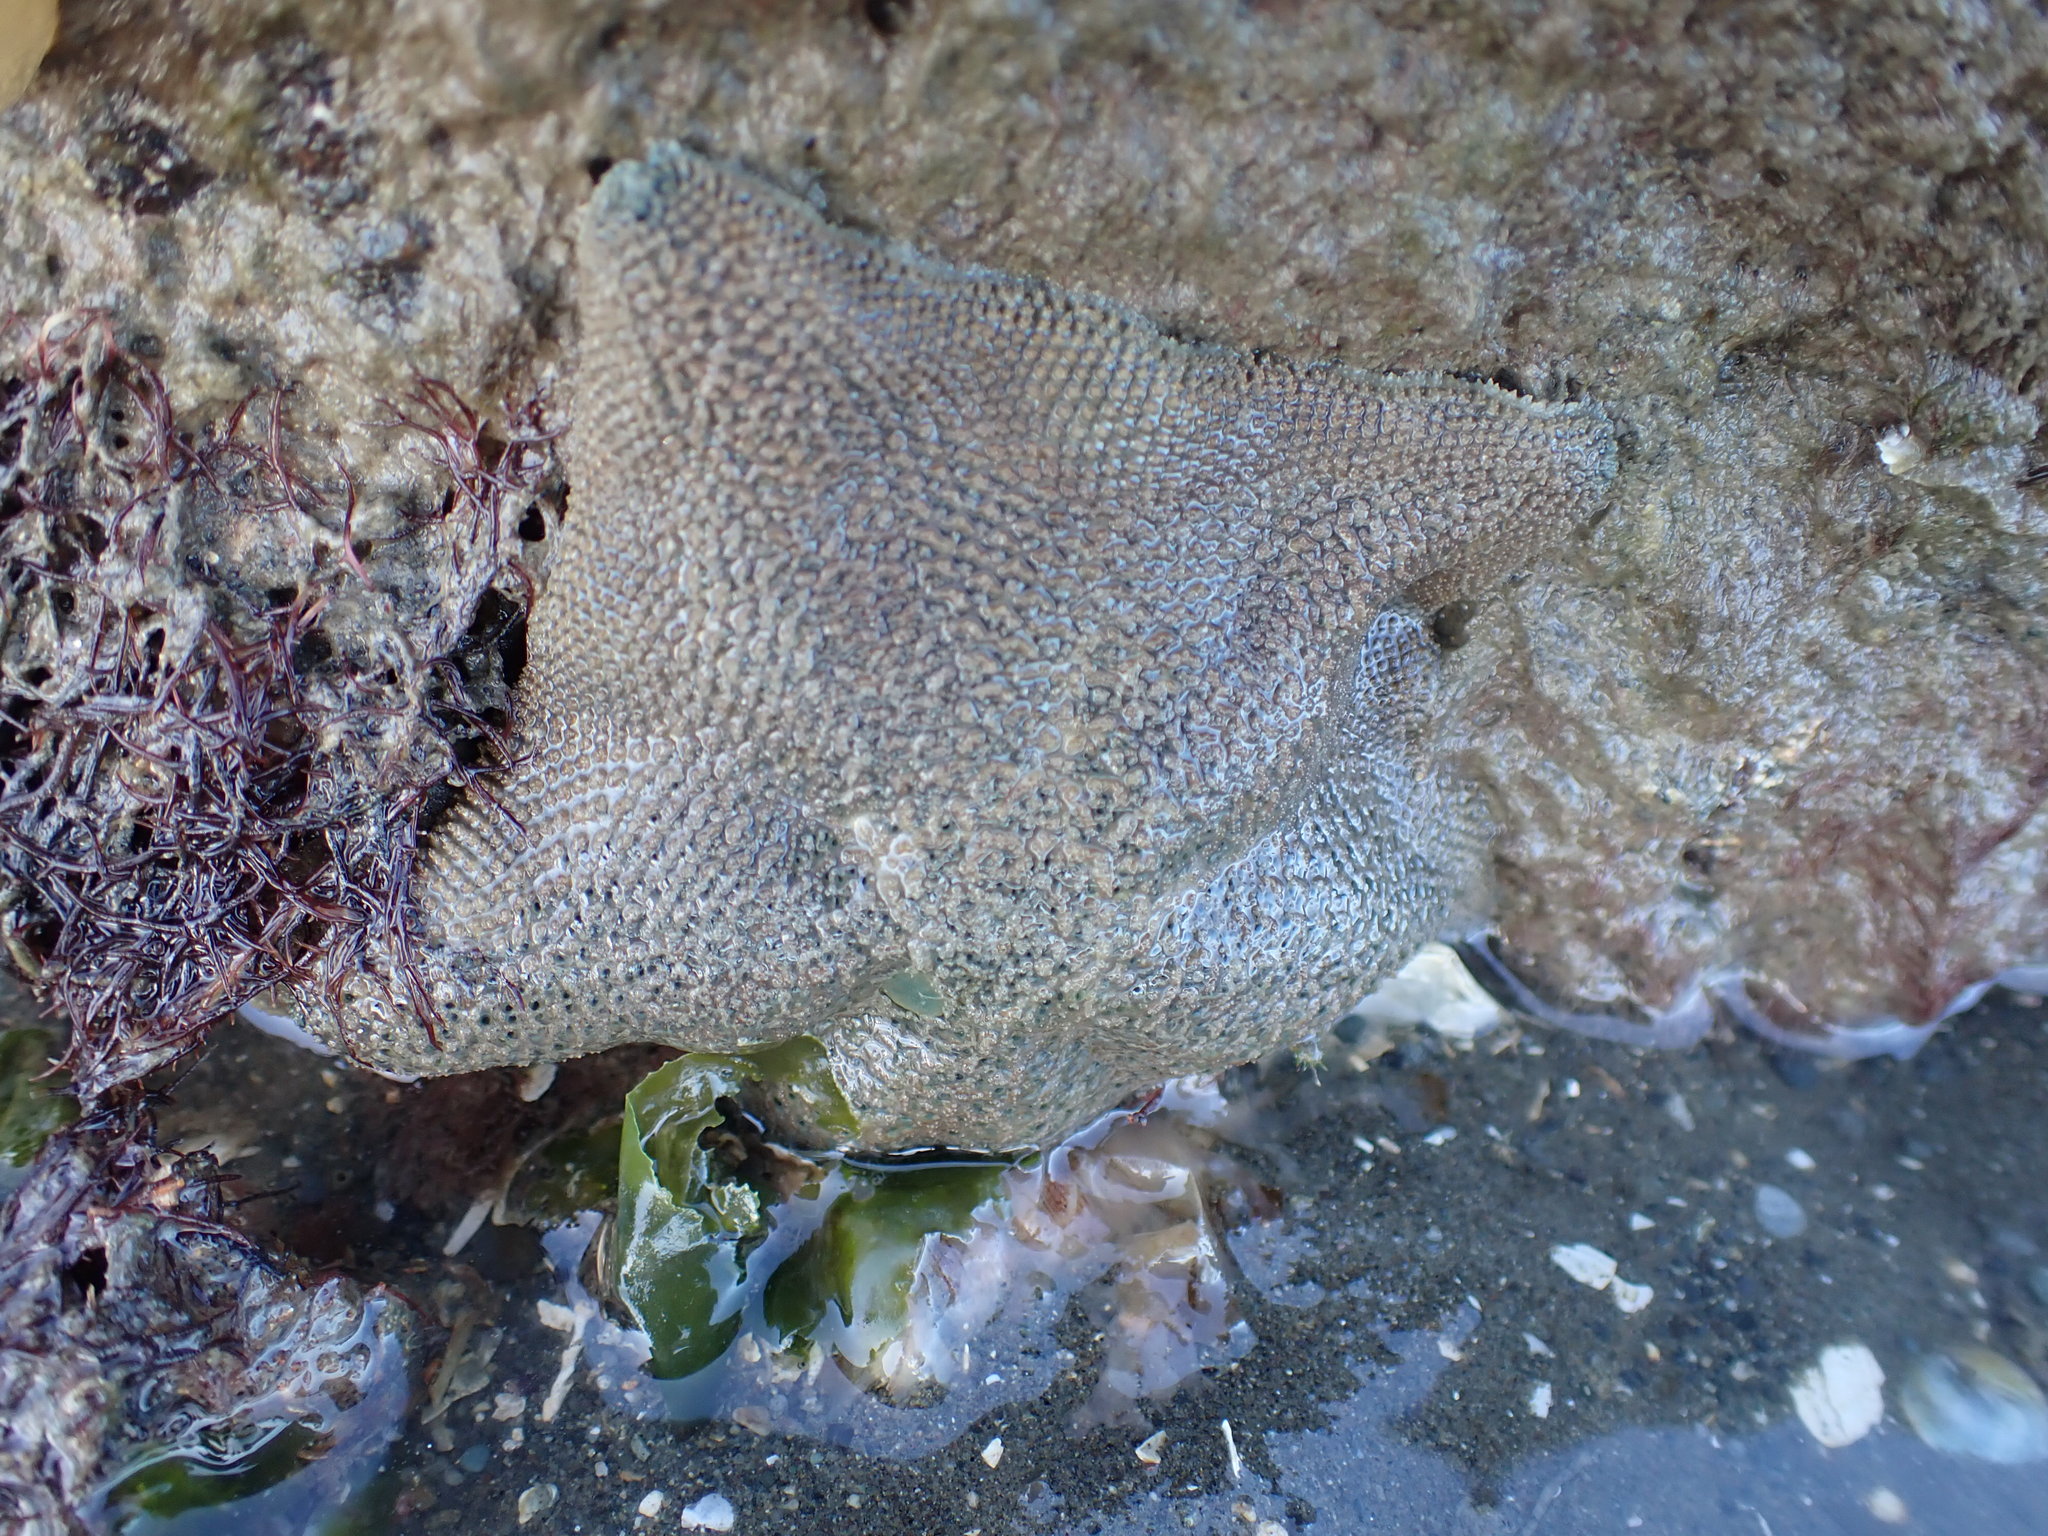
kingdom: Animalia
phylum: Echinodermata
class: Asteroidea
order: Valvatida
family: Asterinidae
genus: Patiriella
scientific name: Patiriella regularis
